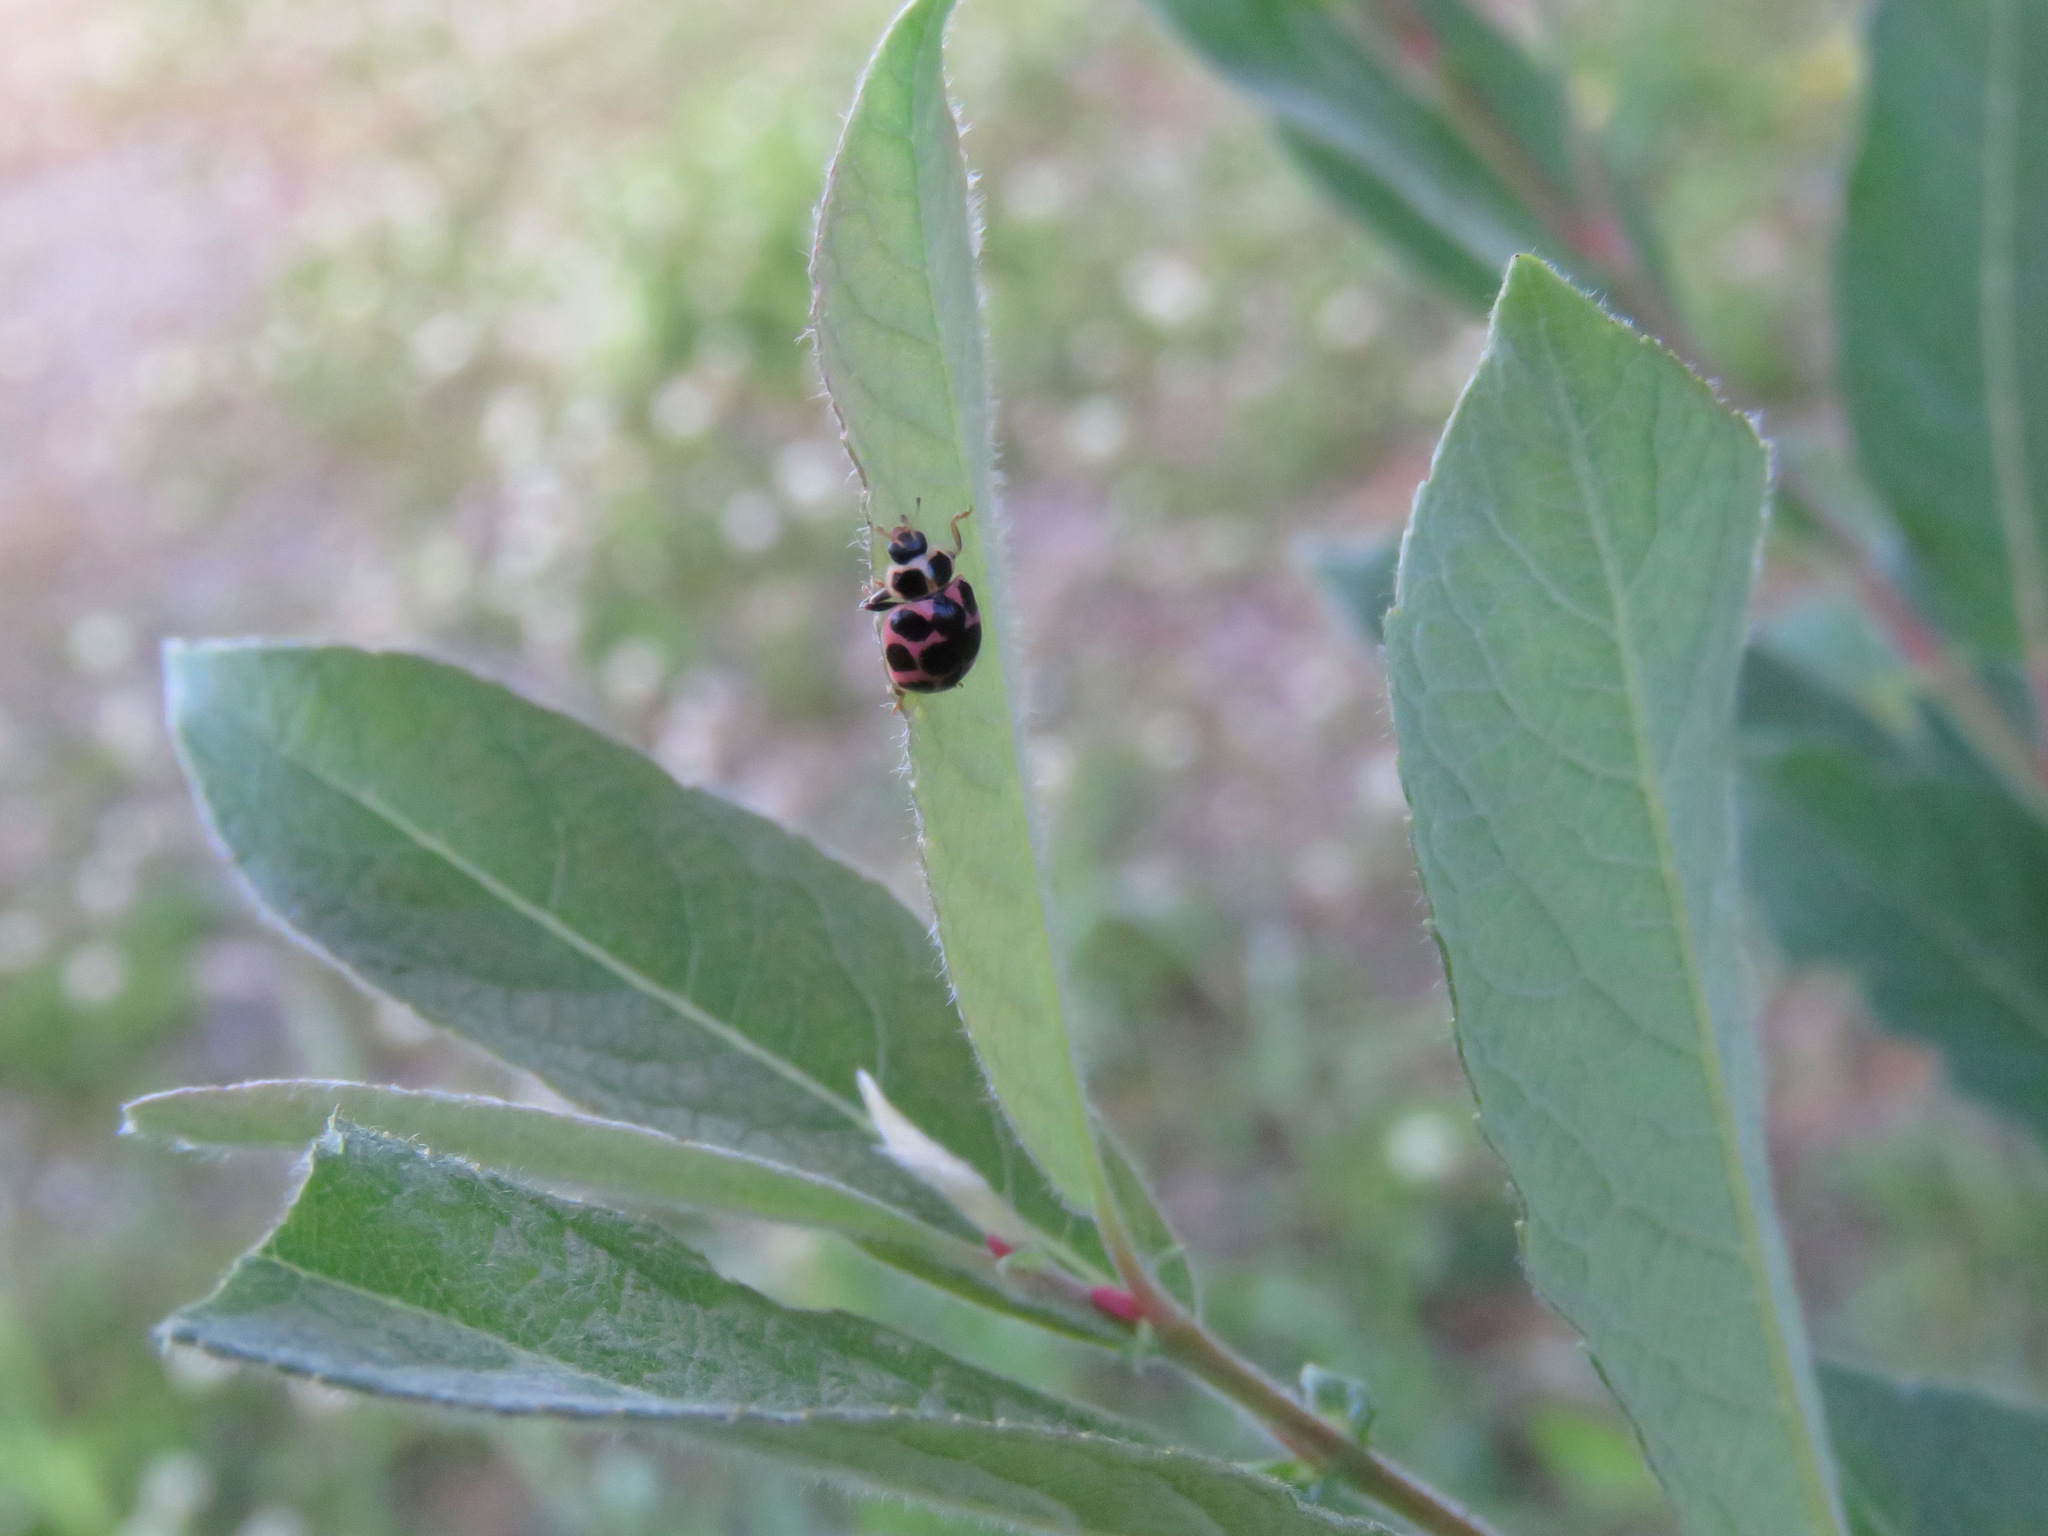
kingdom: Animalia
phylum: Arthropoda
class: Insecta
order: Coleoptera
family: Coccinellidae
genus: Coleomegilla
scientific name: Coleomegilla maculata
